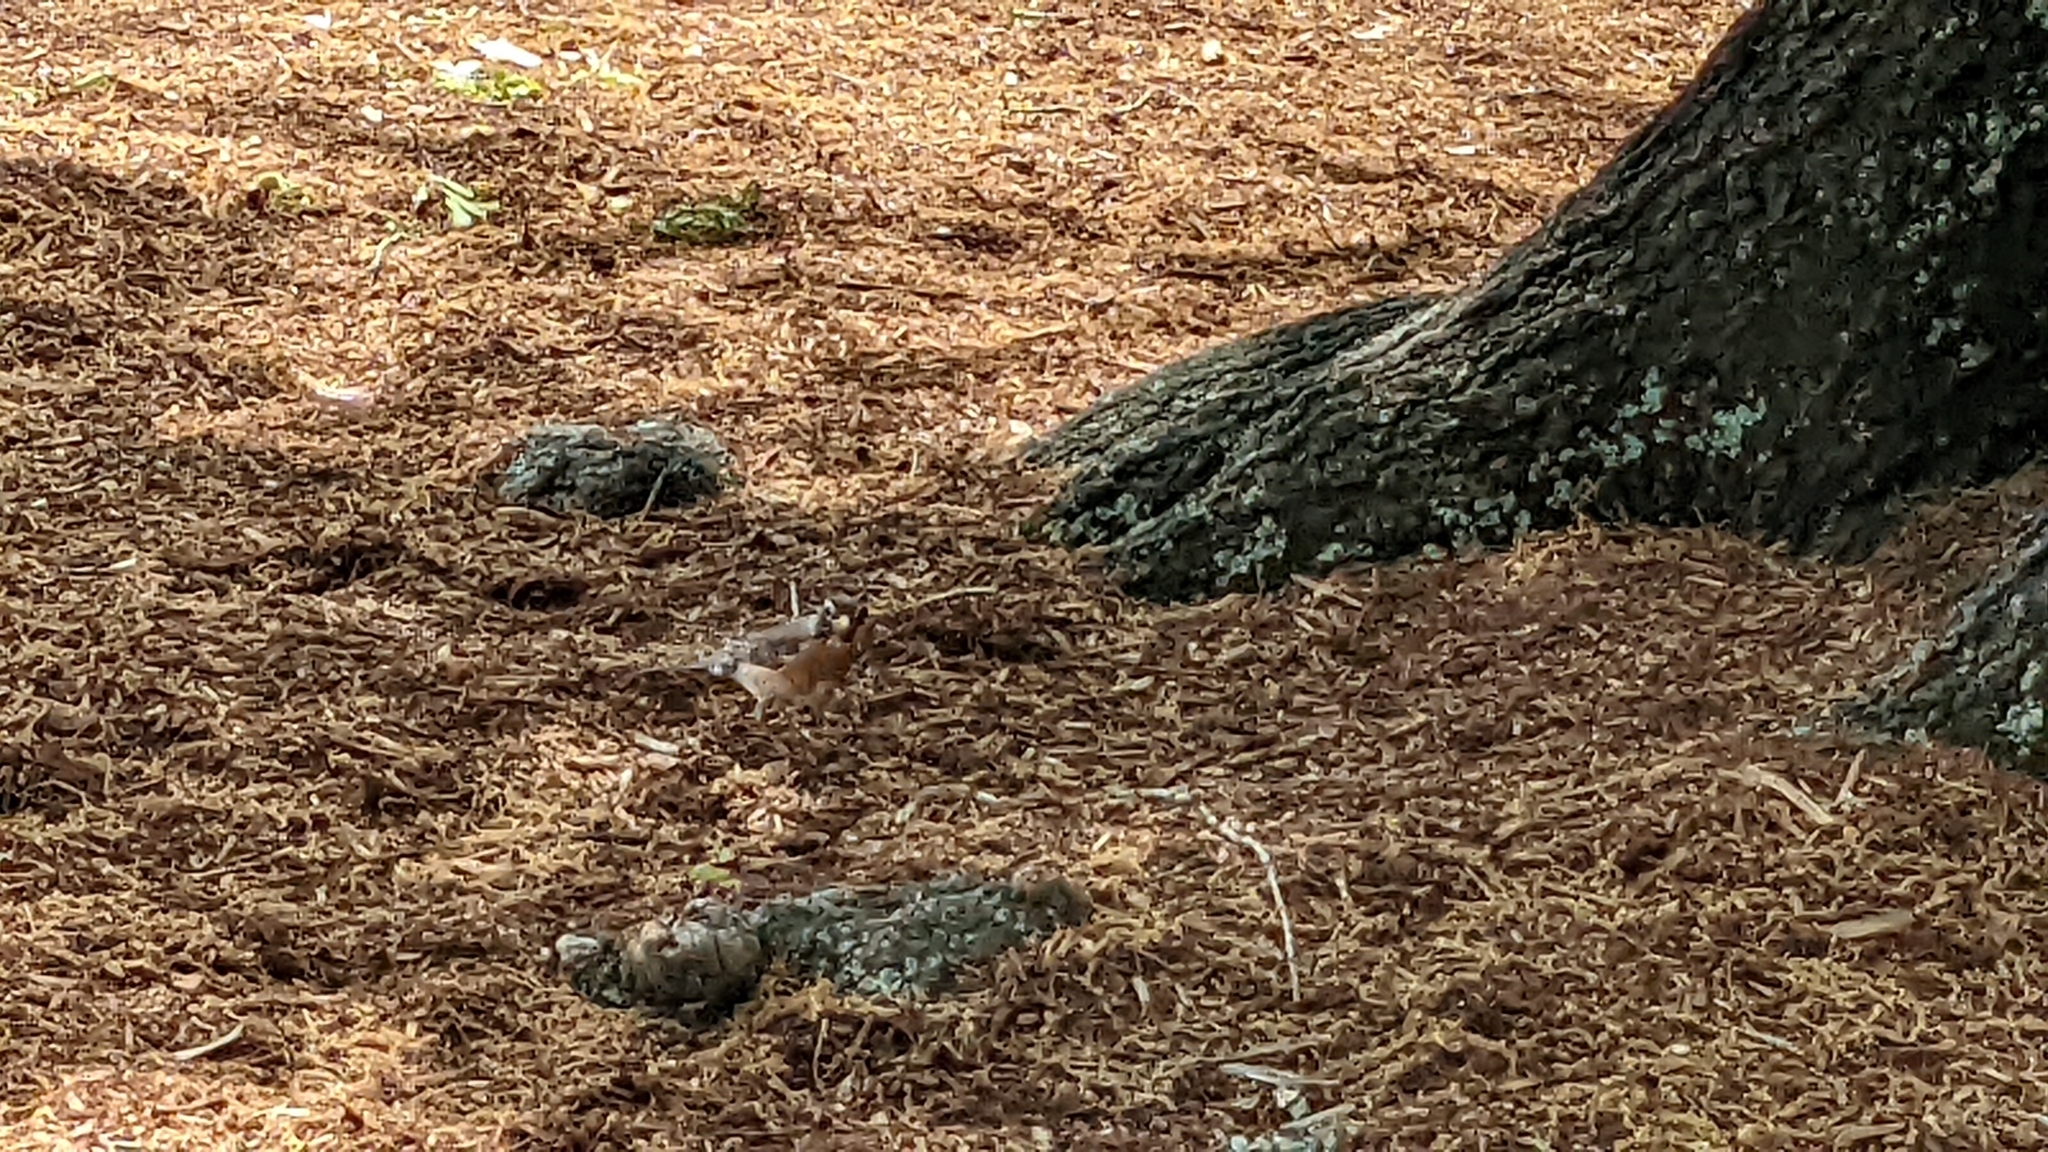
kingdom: Animalia
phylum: Chordata
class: Aves
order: Passeriformes
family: Turdidae
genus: Turdus
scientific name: Turdus migratorius
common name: American robin
